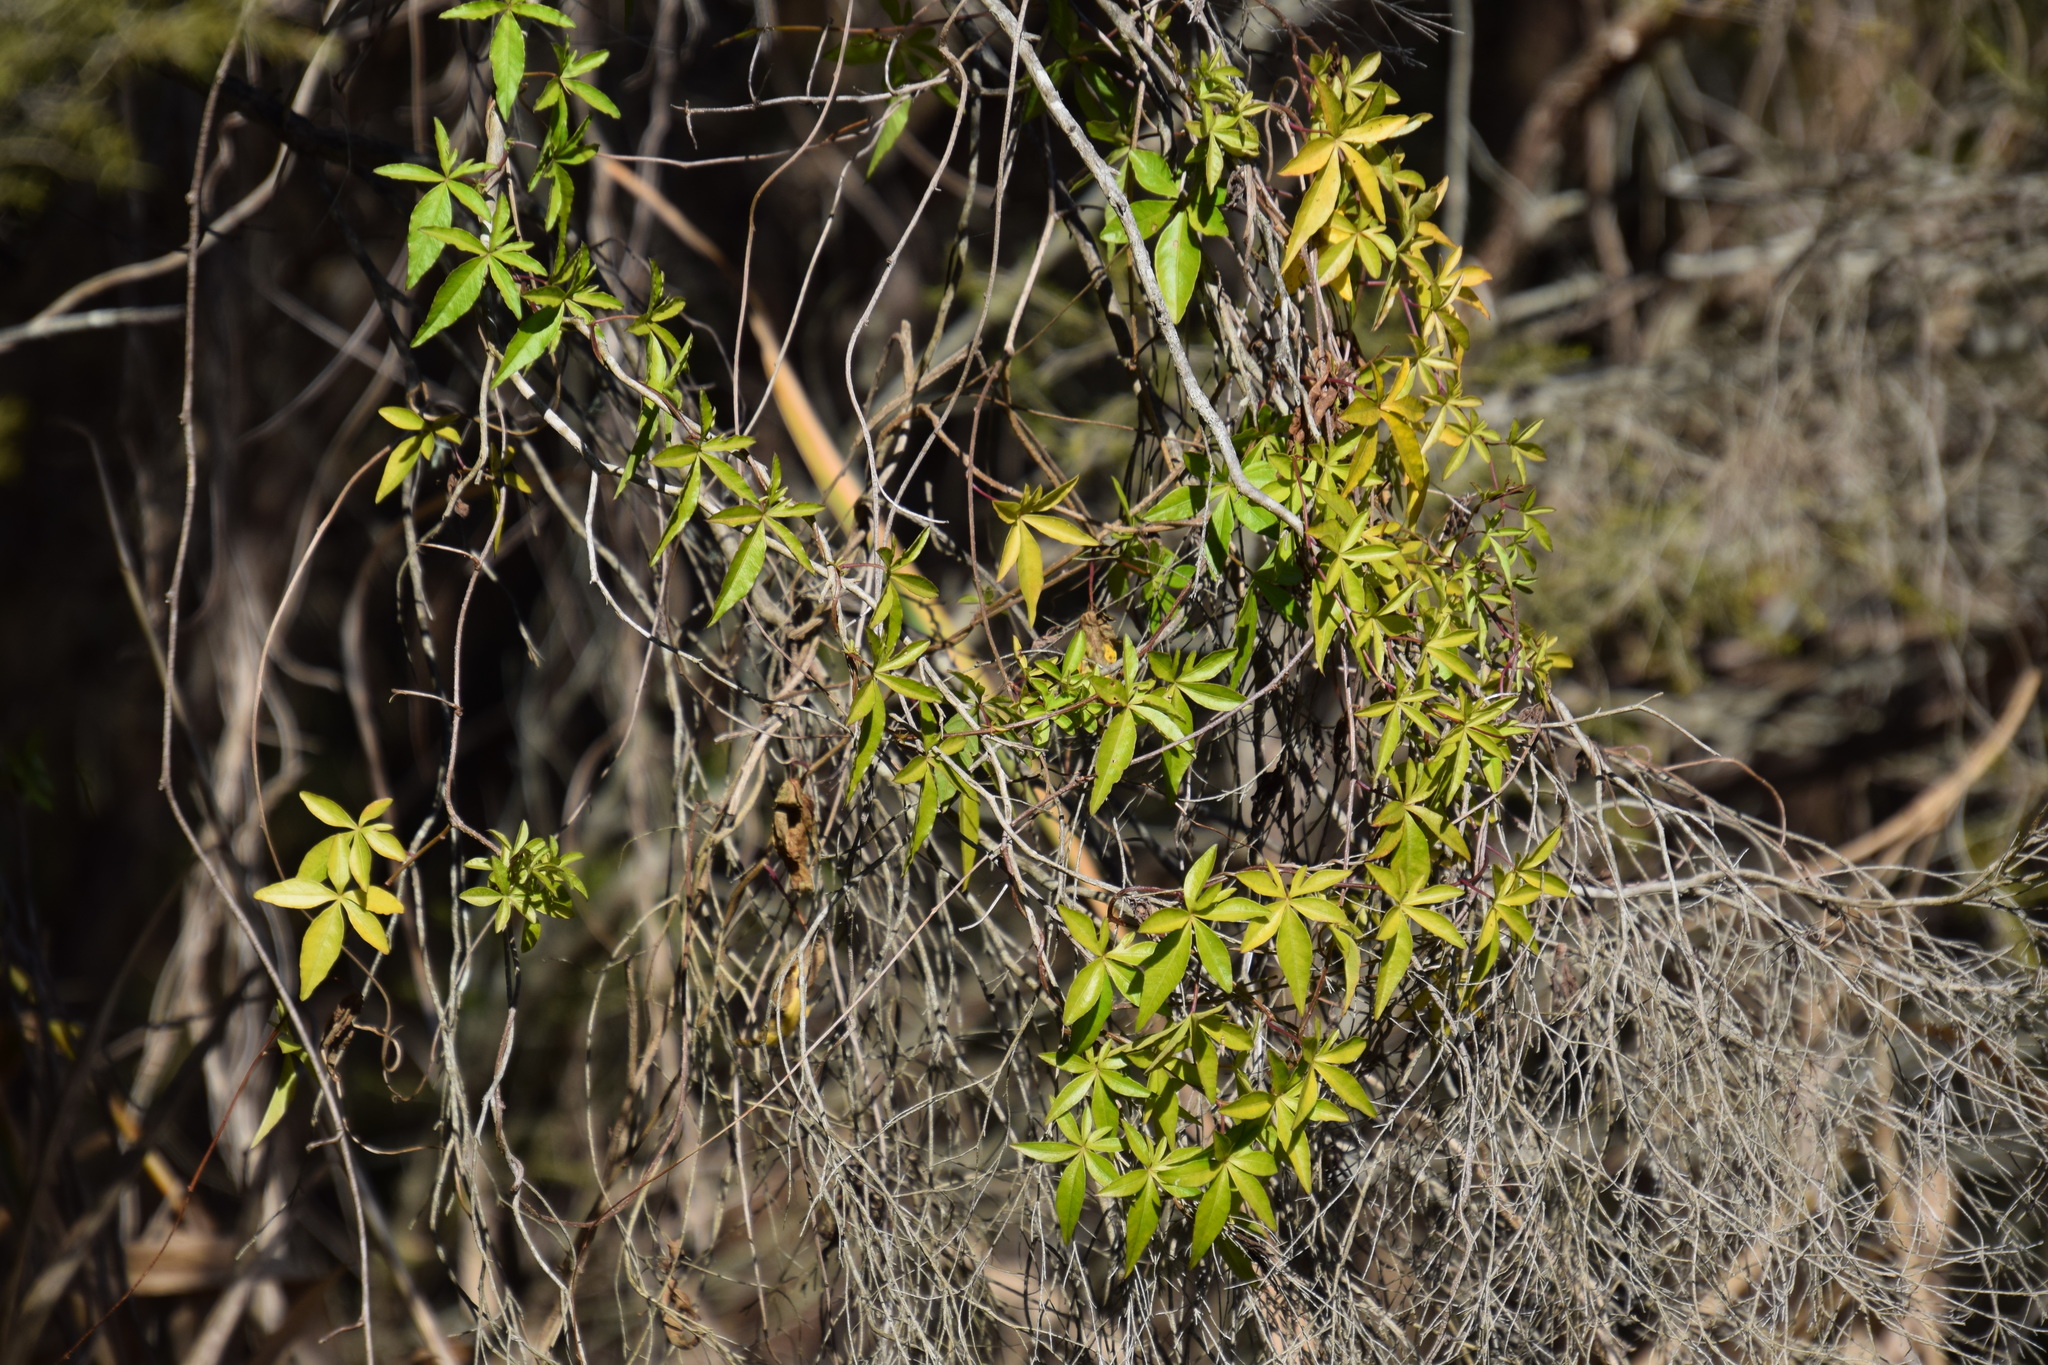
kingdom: Plantae
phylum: Tracheophyta
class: Magnoliopsida
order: Solanales
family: Convolvulaceae
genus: Ipomoea
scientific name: Ipomoea cairica
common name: Mile a minute vine
